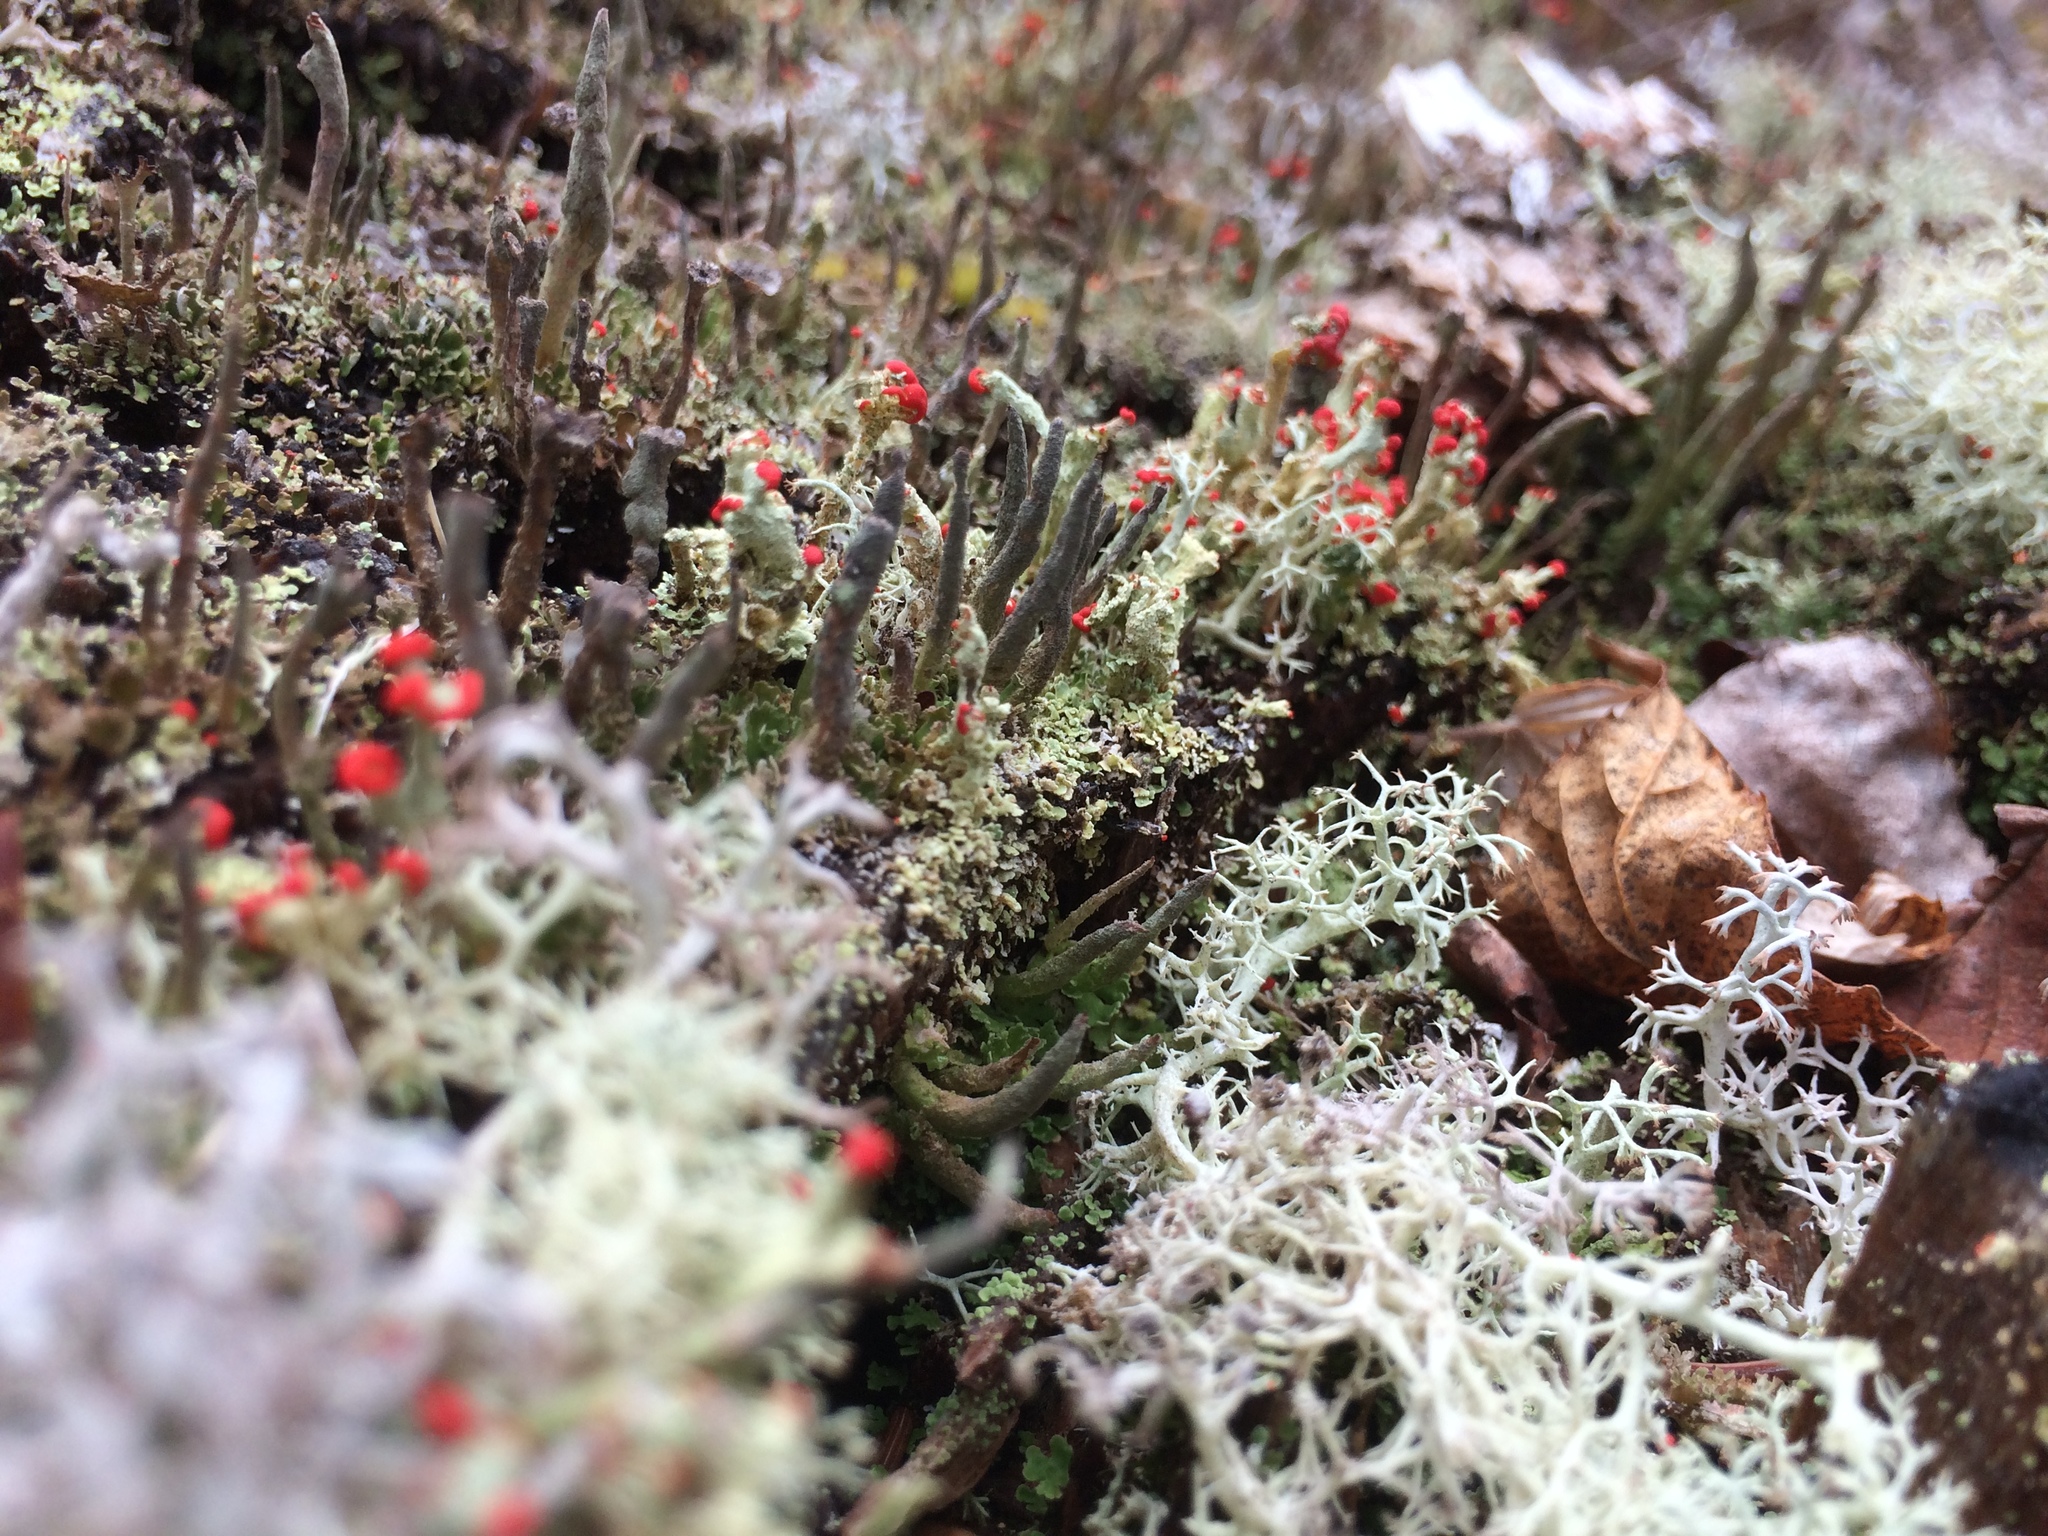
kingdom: Fungi
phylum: Ascomycota
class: Lecanoromycetes
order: Lecanorales
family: Cladoniaceae
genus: Cladonia
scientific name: Cladonia cristatella
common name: British soldier lichen
